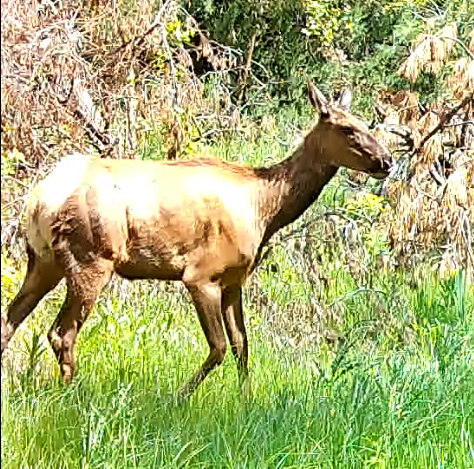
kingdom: Animalia
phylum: Chordata
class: Mammalia
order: Artiodactyla
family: Cervidae
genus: Cervus
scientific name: Cervus elaphus
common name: Red deer
